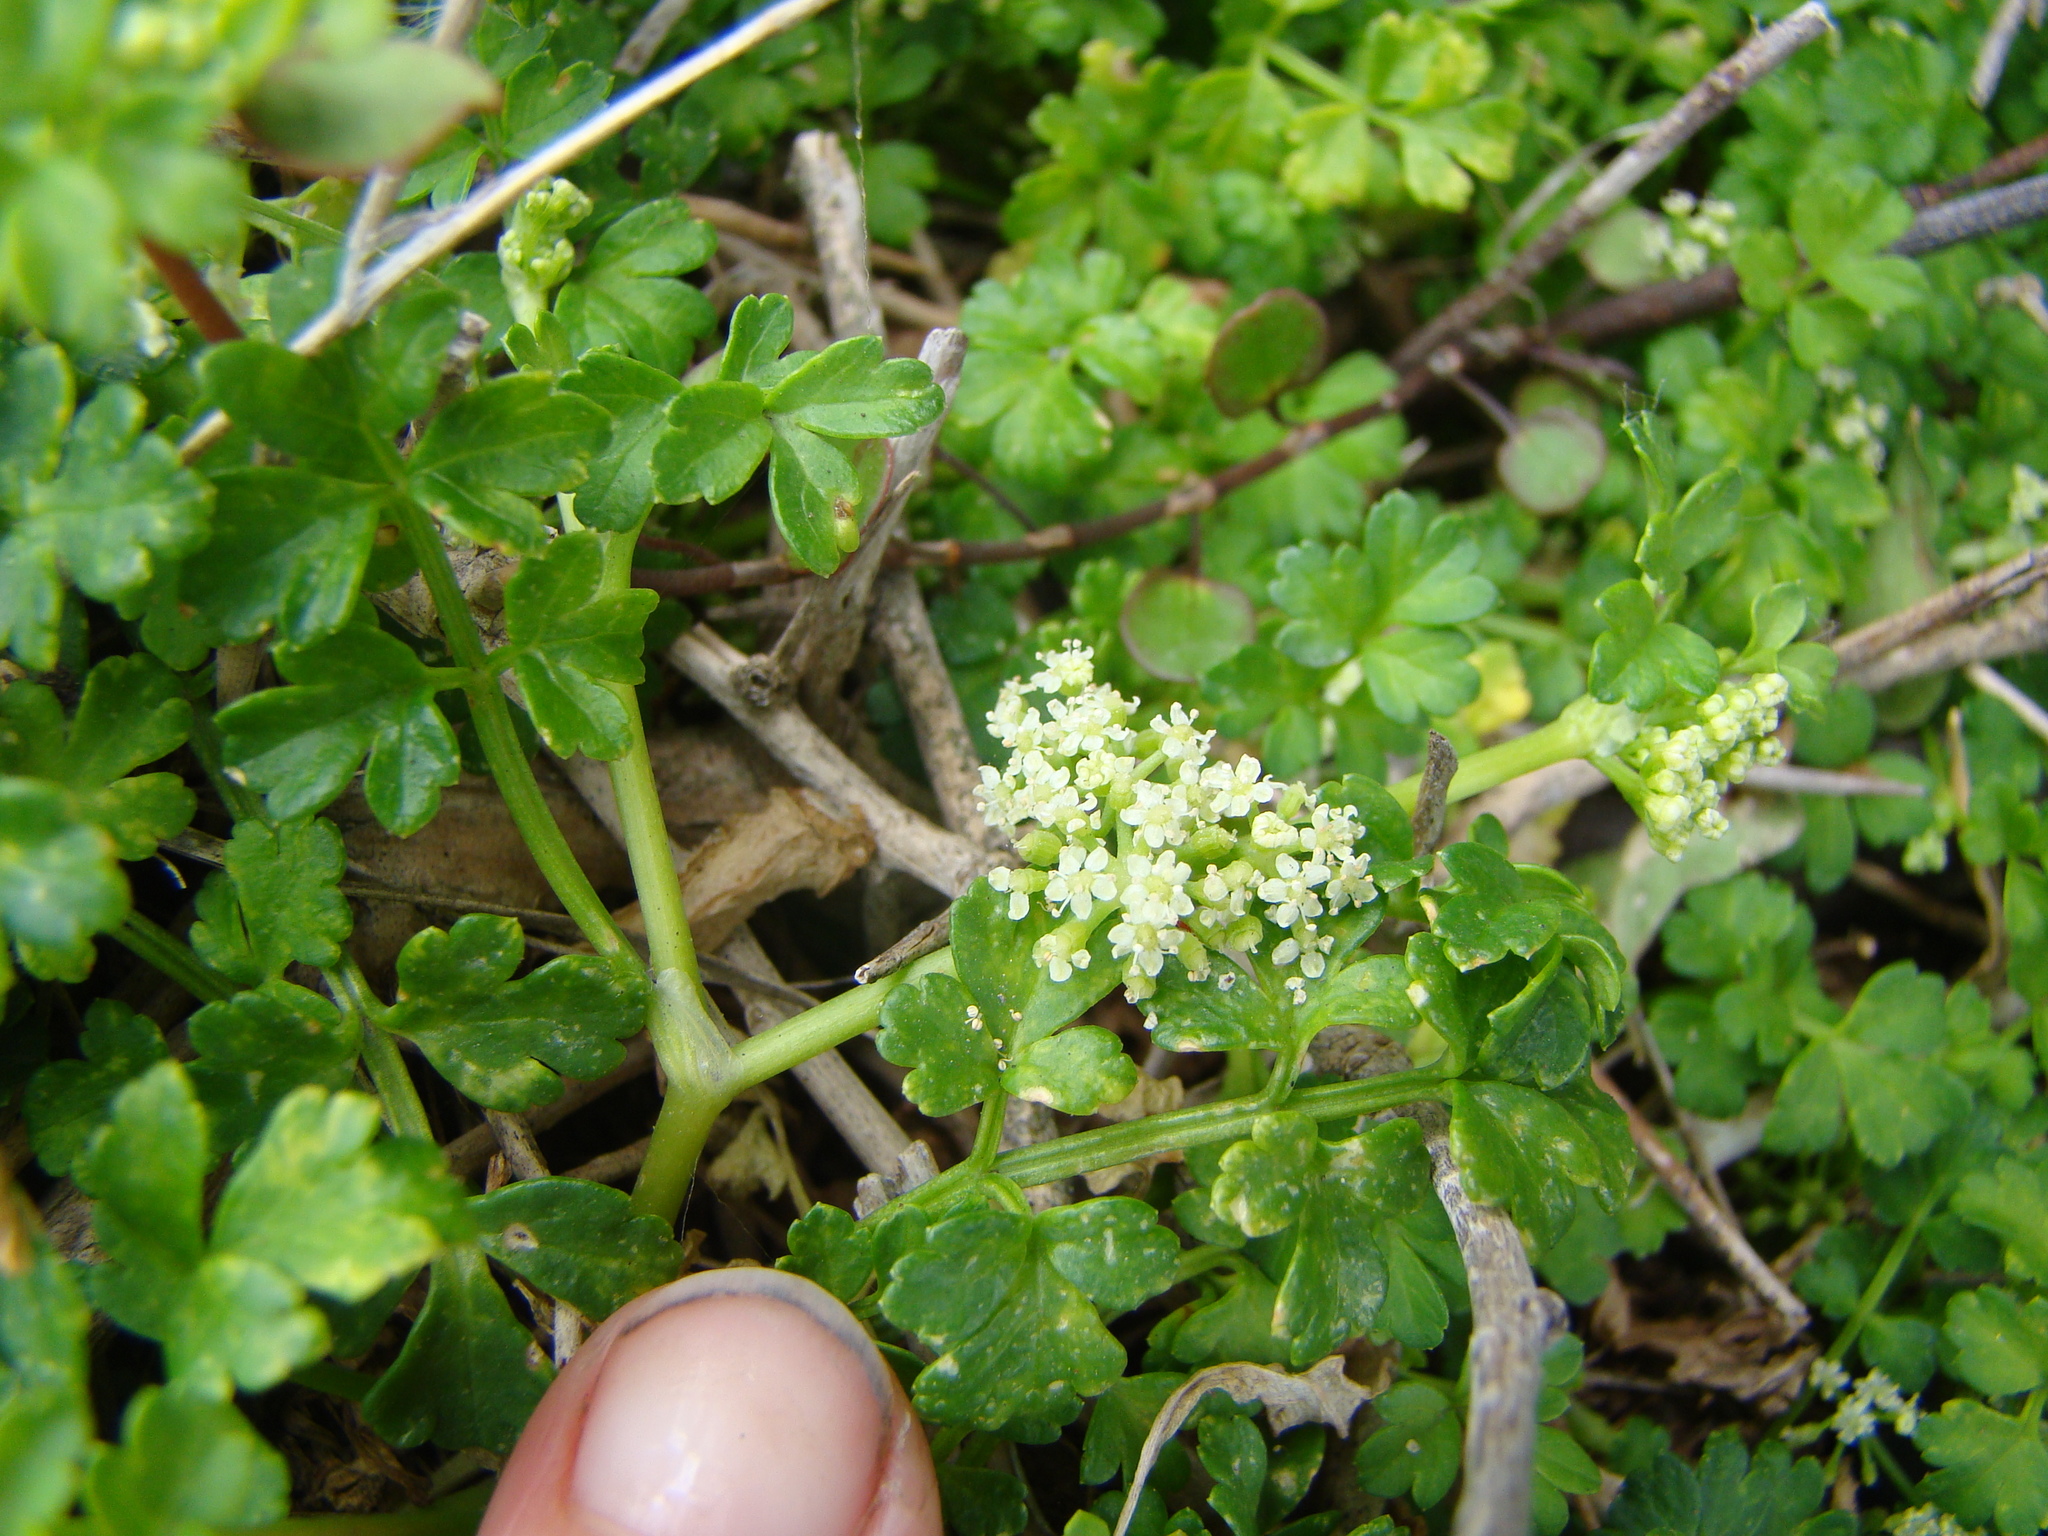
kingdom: Plantae
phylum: Tracheophyta
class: Magnoliopsida
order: Apiales
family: Apiaceae
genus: Apium
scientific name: Apium prostratum
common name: Prostrate marshwort
